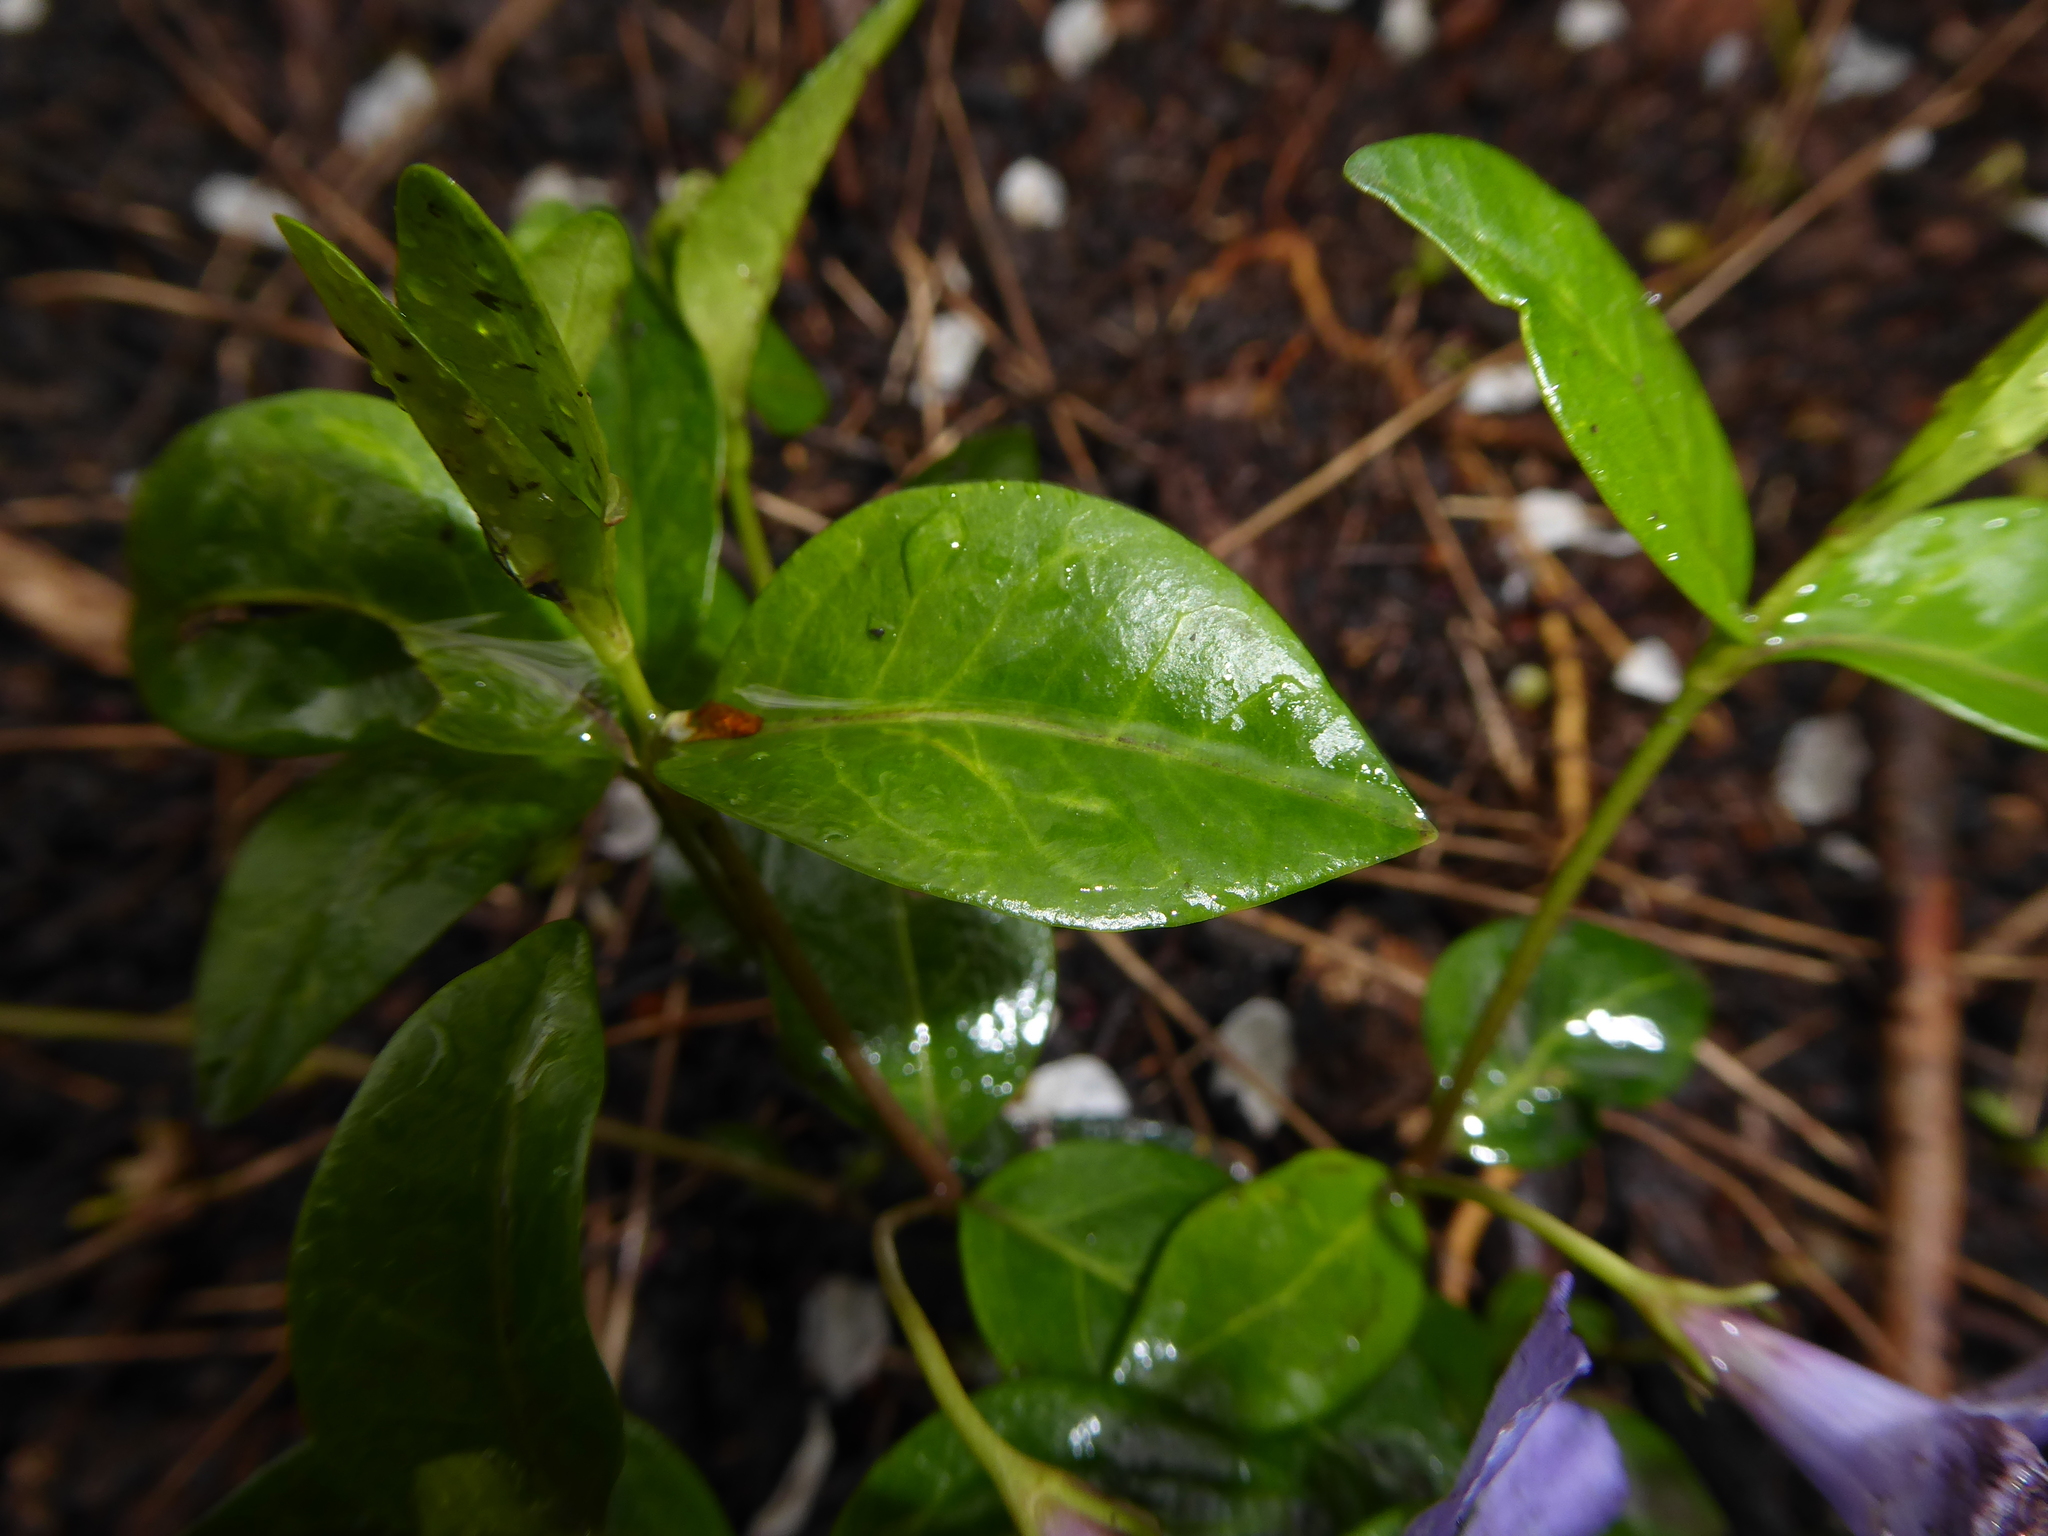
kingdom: Plantae
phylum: Tracheophyta
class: Magnoliopsida
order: Gentianales
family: Apocynaceae
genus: Vinca
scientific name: Vinca minor
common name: Lesser periwinkle
